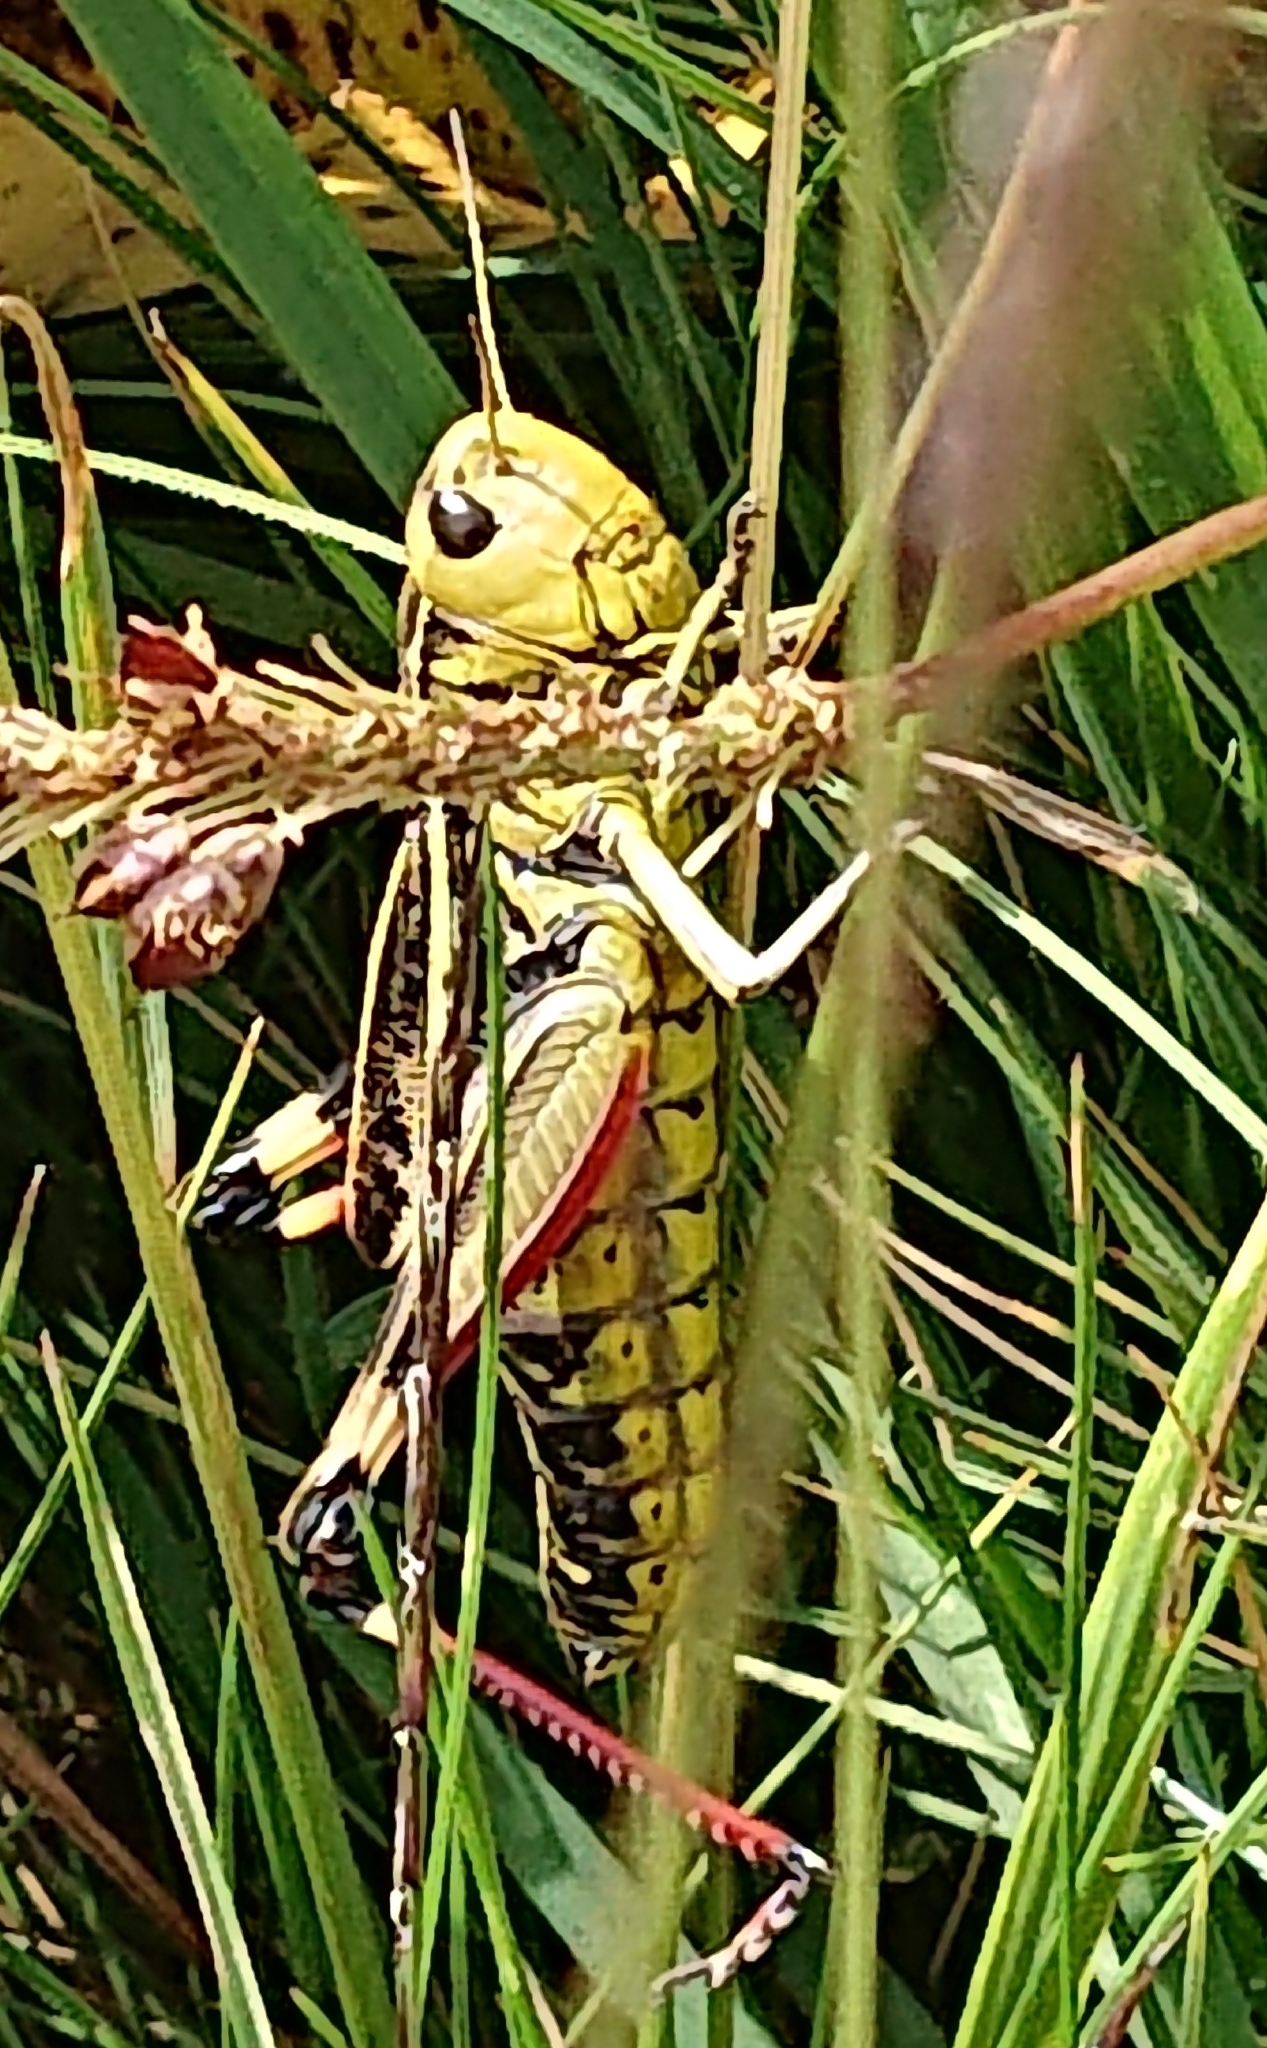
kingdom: Animalia
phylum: Arthropoda
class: Insecta
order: Orthoptera
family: Acrididae
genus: Arcyptera
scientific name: Arcyptera fusca
